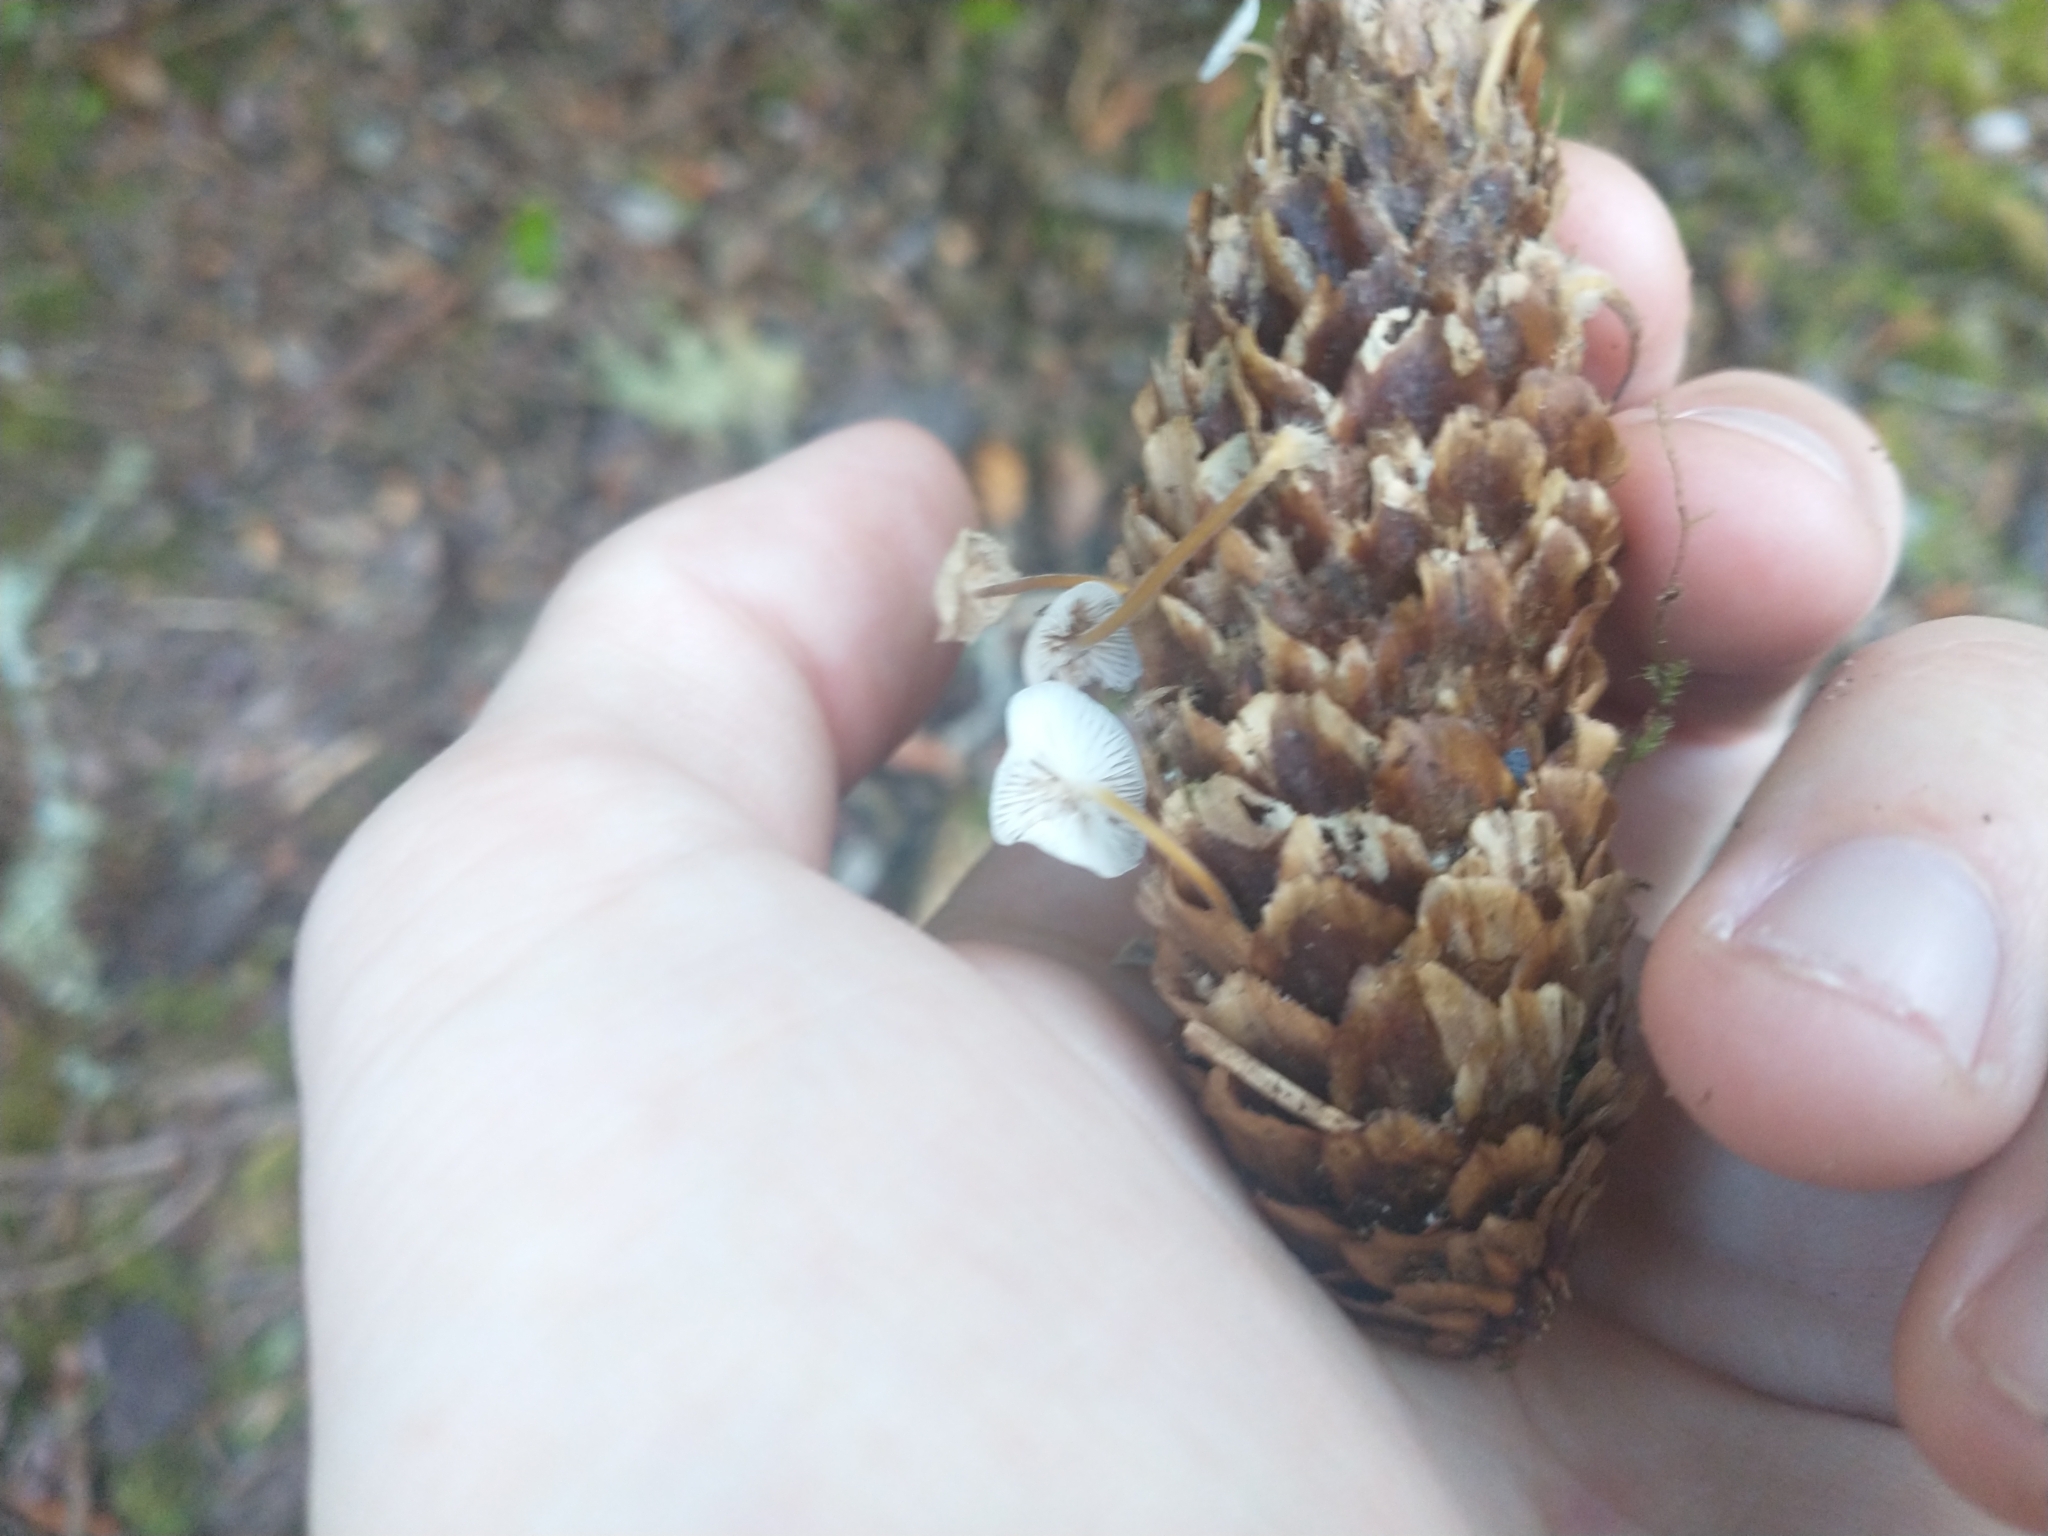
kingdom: Plantae
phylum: Tracheophyta
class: Pinopsida
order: Pinales
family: Pinaceae
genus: Picea
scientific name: Picea sitchensis
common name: Sitka spruce
